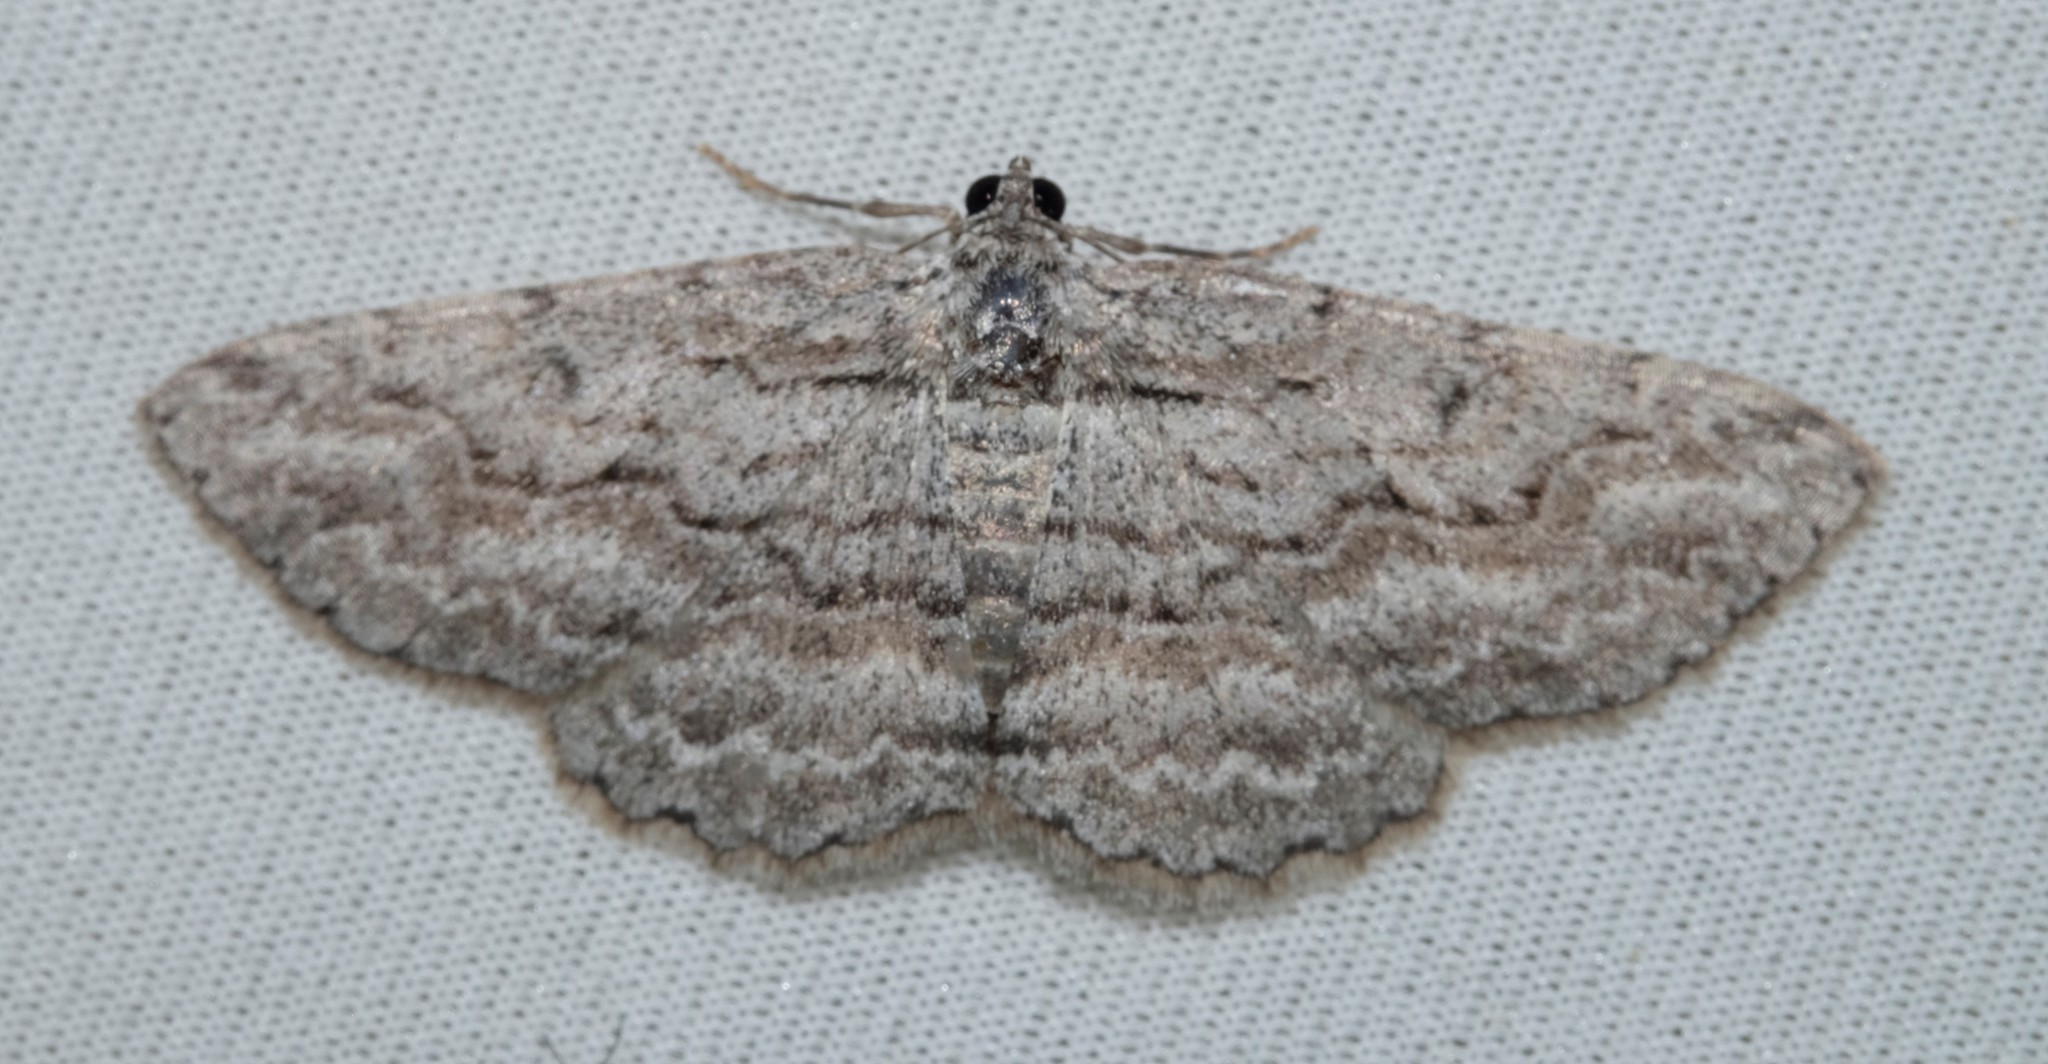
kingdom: Animalia
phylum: Arthropoda
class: Insecta
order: Lepidoptera
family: Geometridae
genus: Psilosticha
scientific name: Psilosticha absorpta
